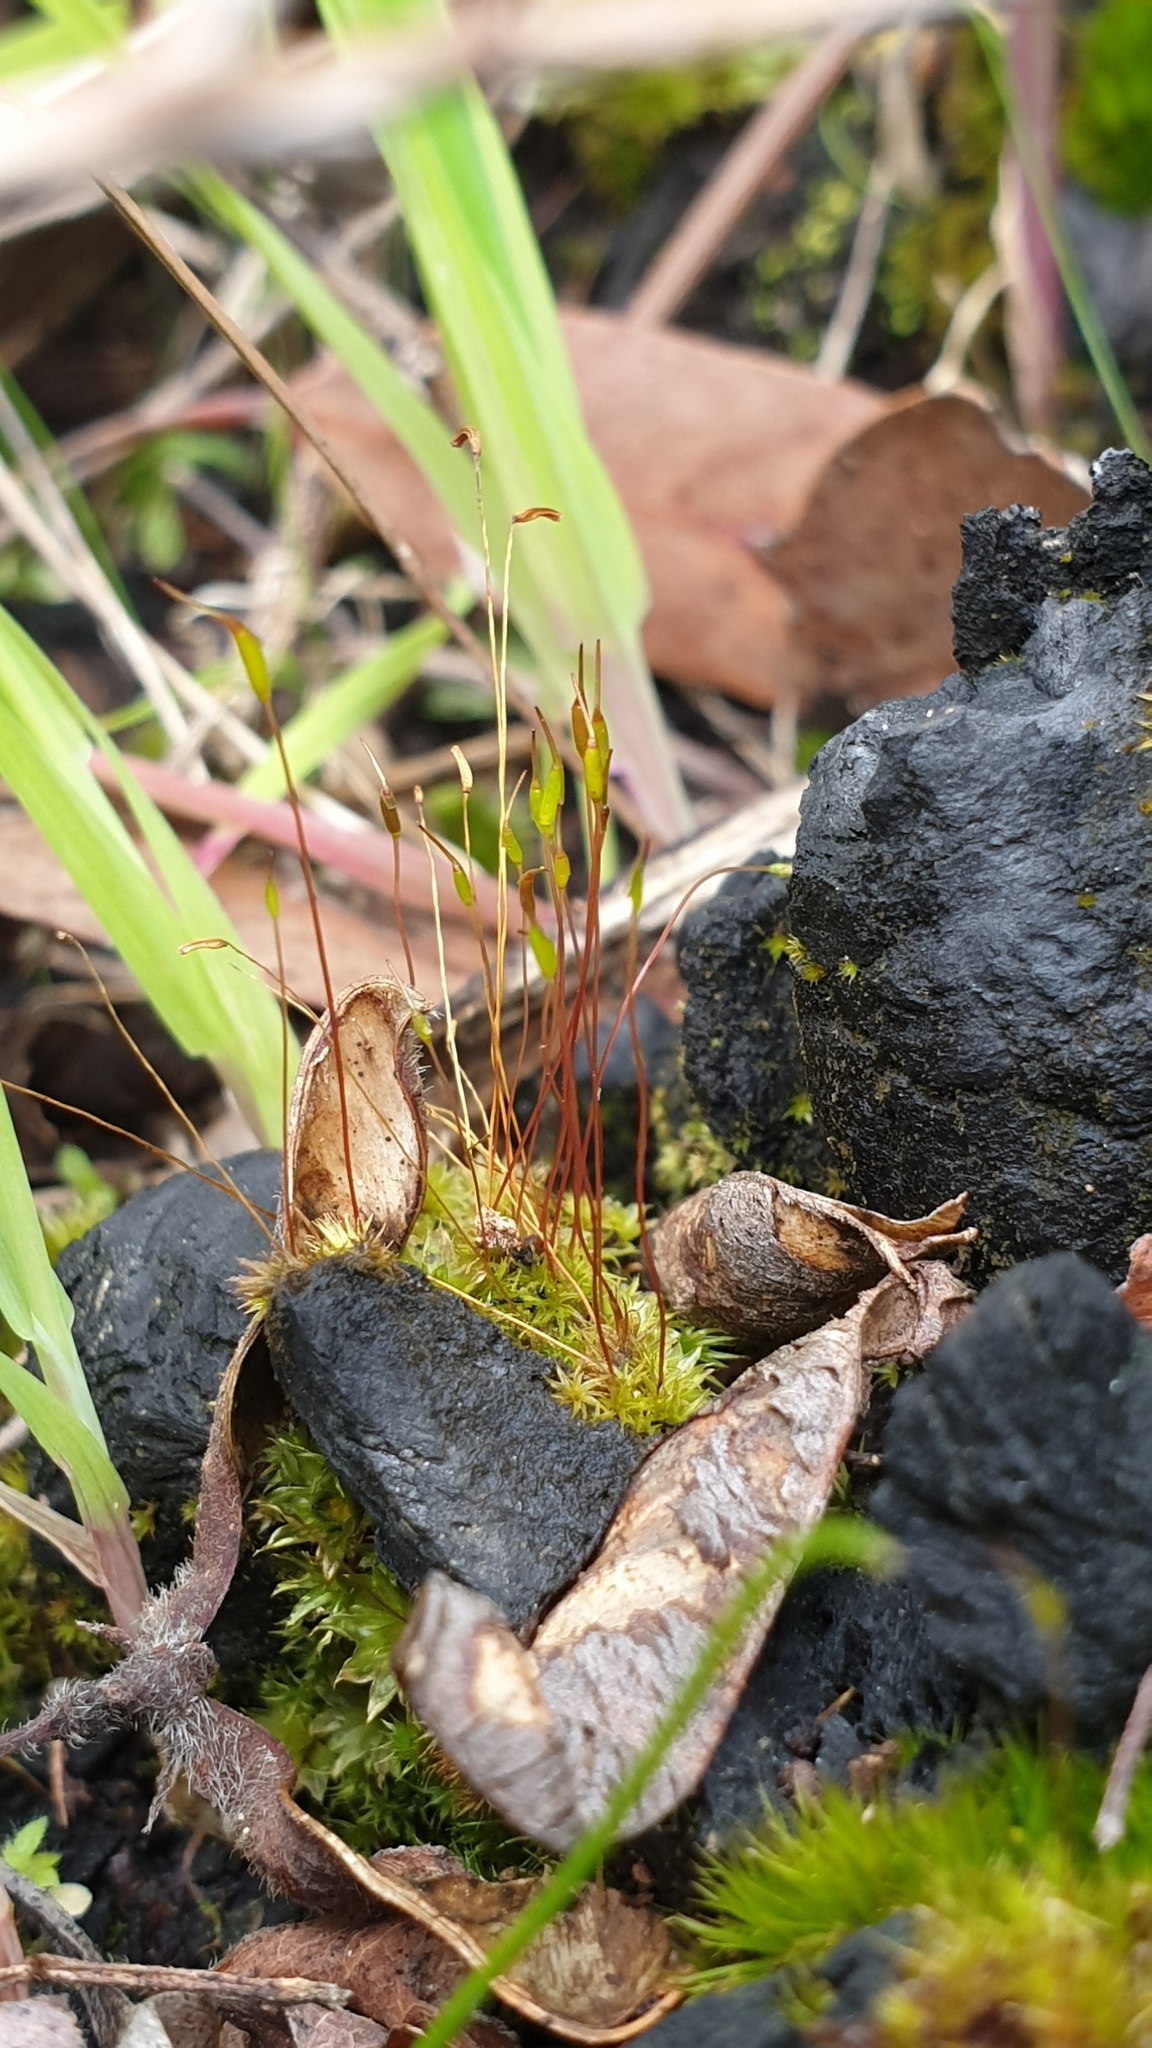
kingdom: Plantae
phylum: Bryophyta
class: Bryopsida
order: Dicranales
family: Ditrichaceae
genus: Ceratodon
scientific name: Ceratodon purpureus
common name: Redshank
